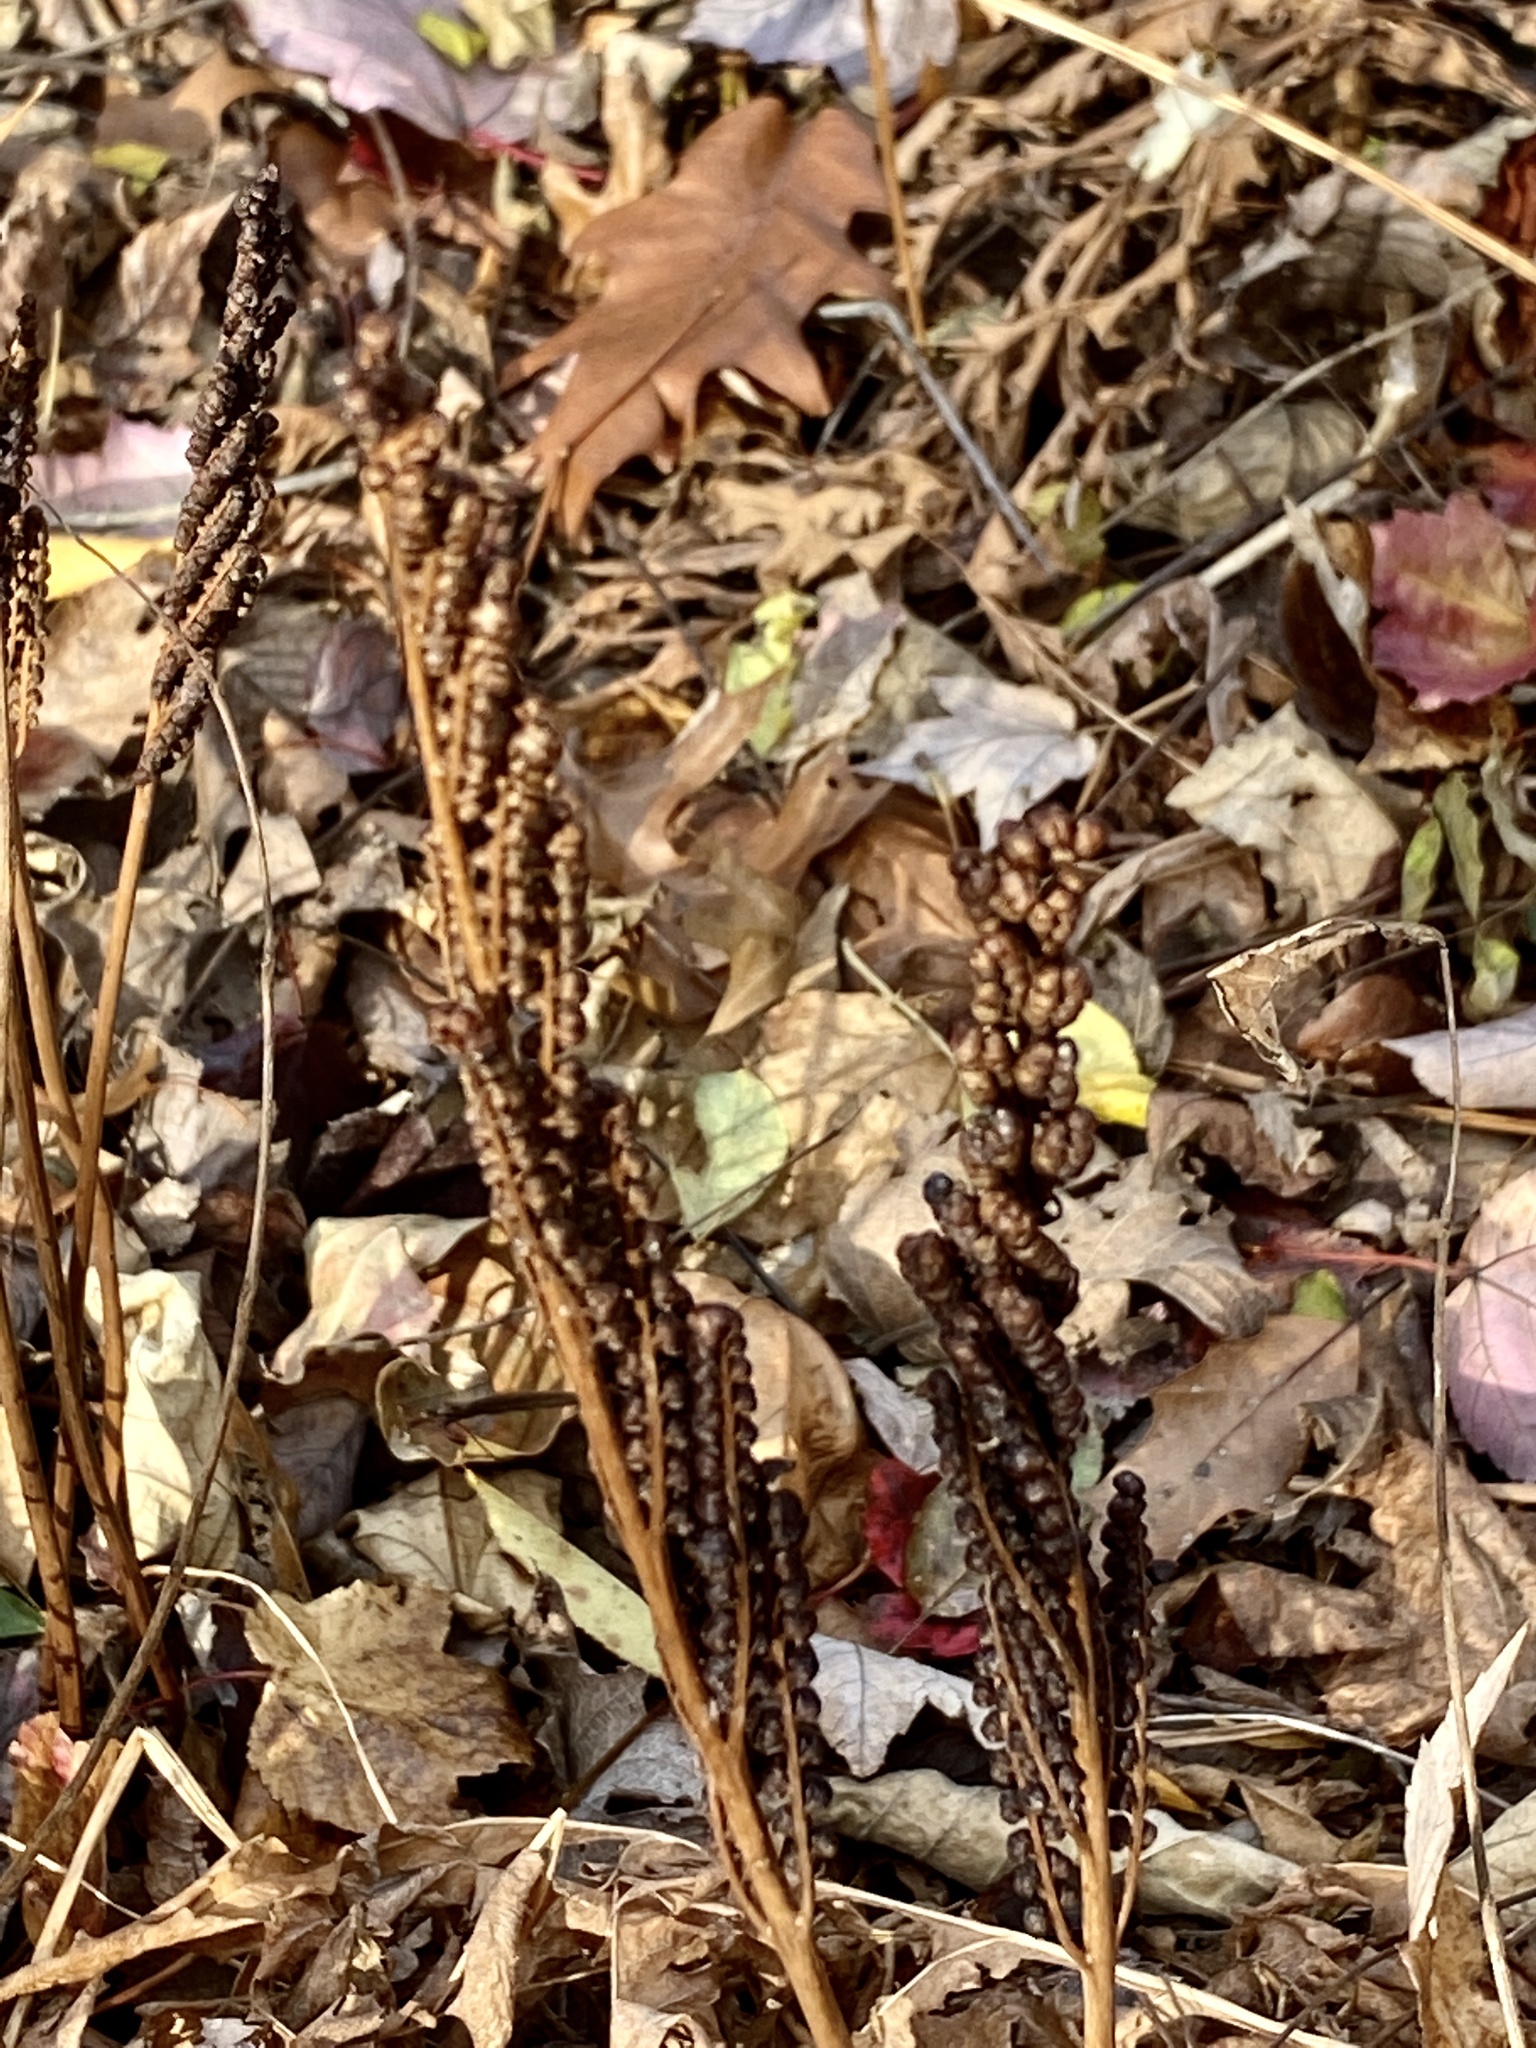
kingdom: Plantae
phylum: Tracheophyta
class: Polypodiopsida
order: Polypodiales
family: Onocleaceae
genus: Onoclea
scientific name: Onoclea sensibilis
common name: Sensitive fern
